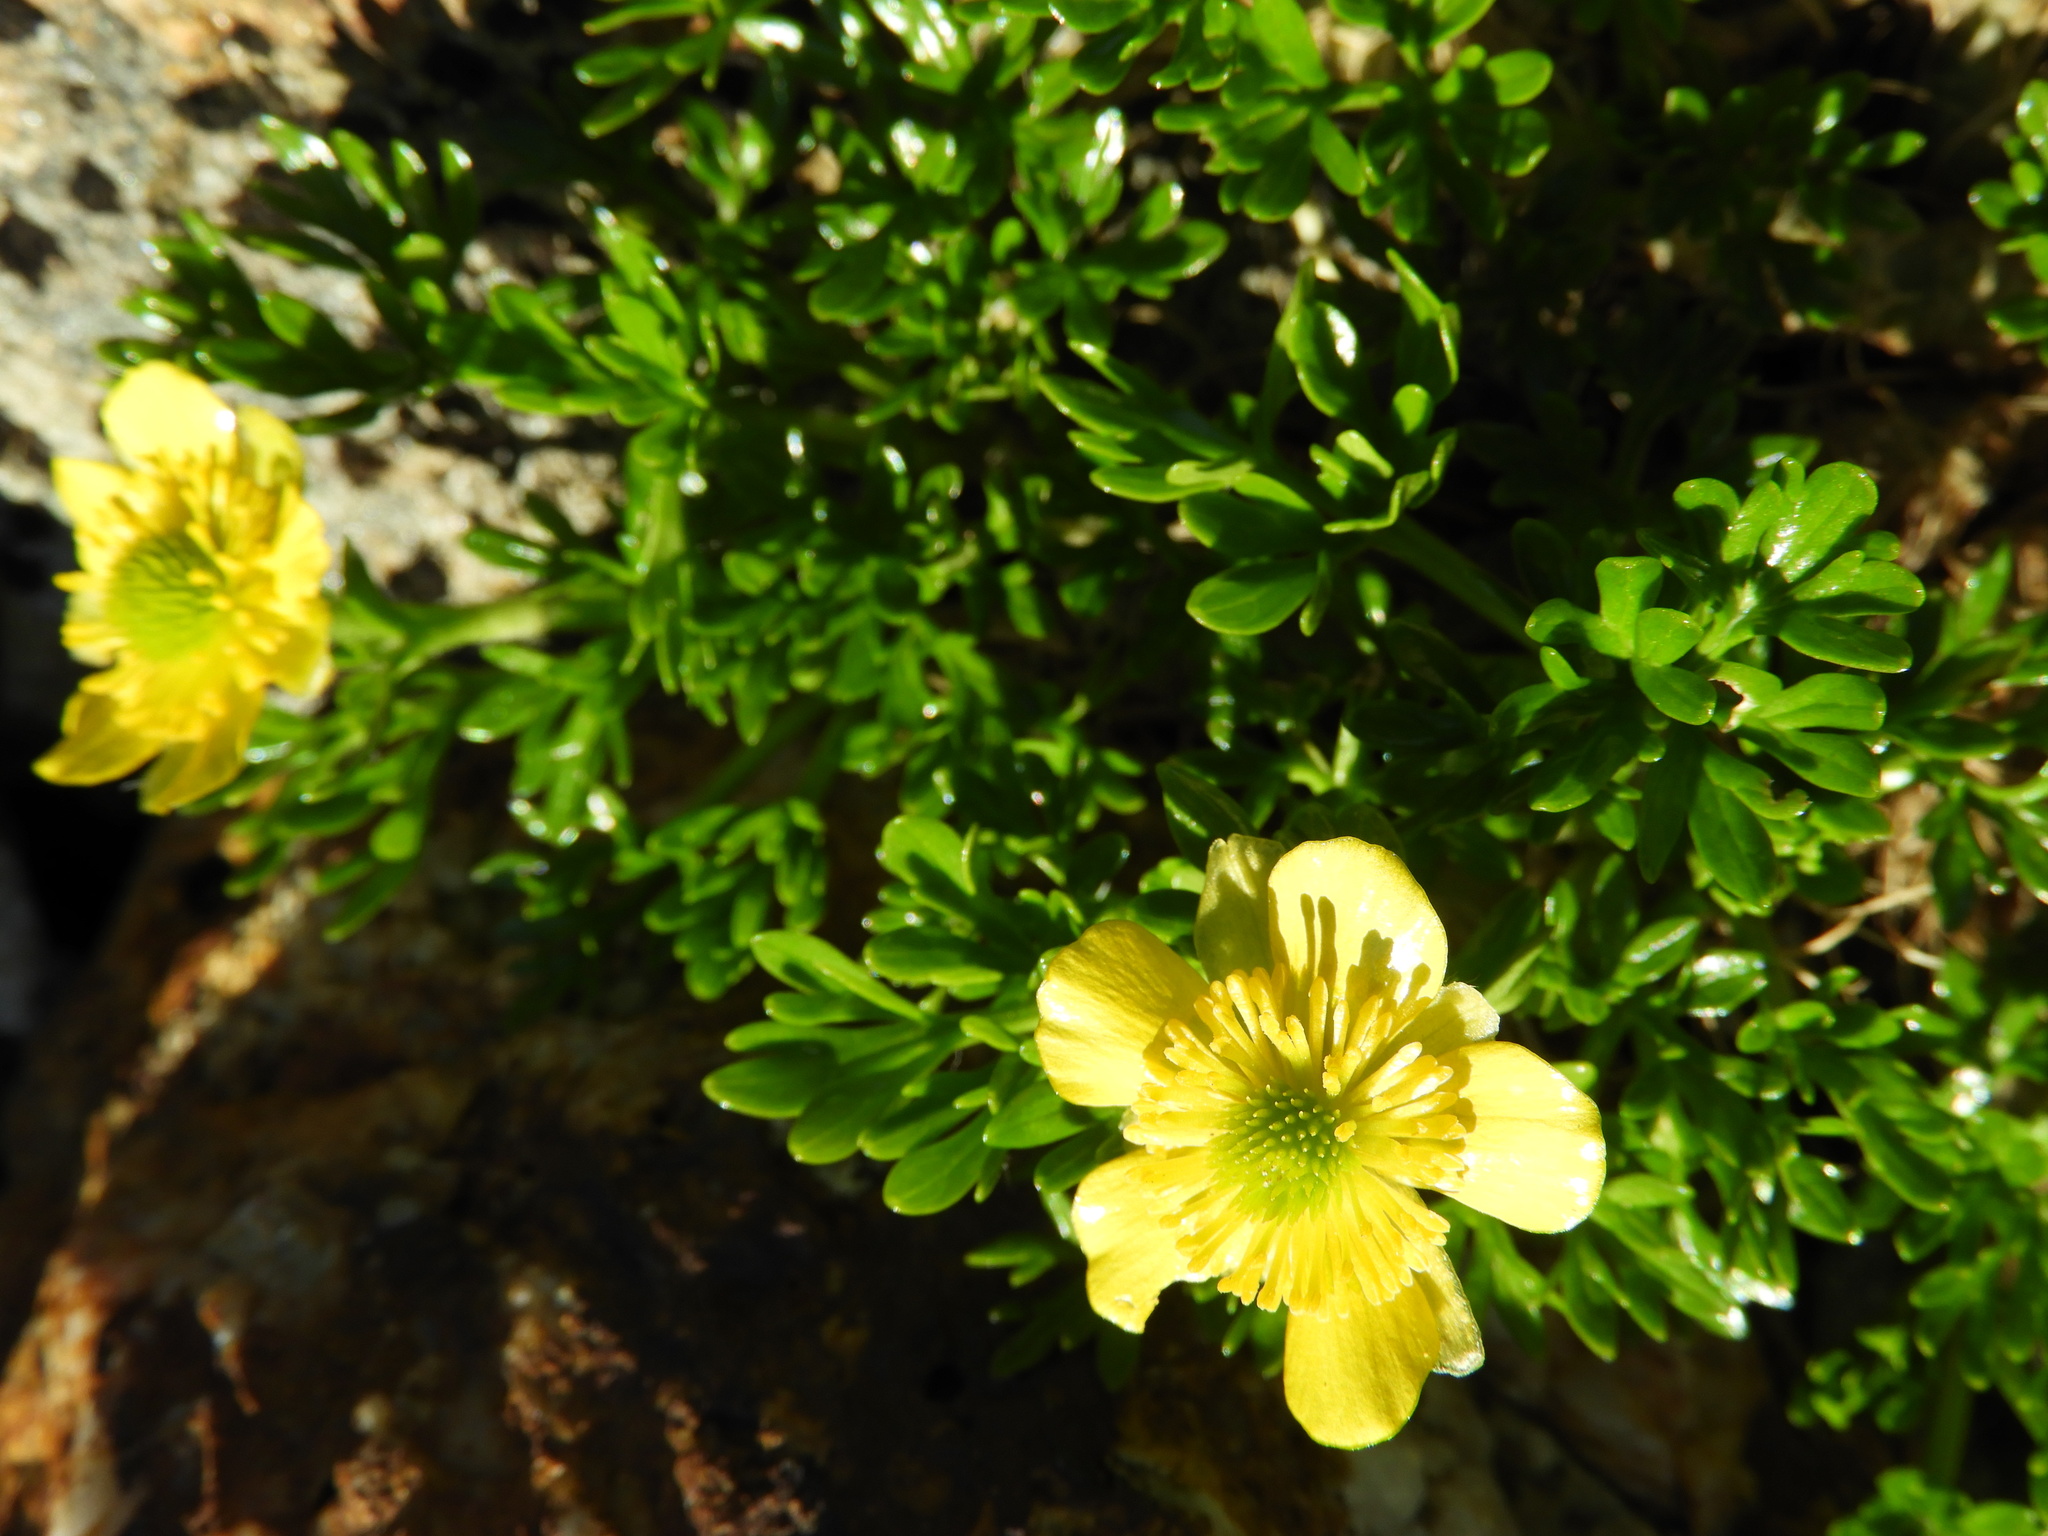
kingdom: Plantae
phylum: Tracheophyta
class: Magnoliopsida
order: Ranunculales
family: Ranunculaceae
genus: Ranunculus
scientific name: Ranunculus sericophyllus
